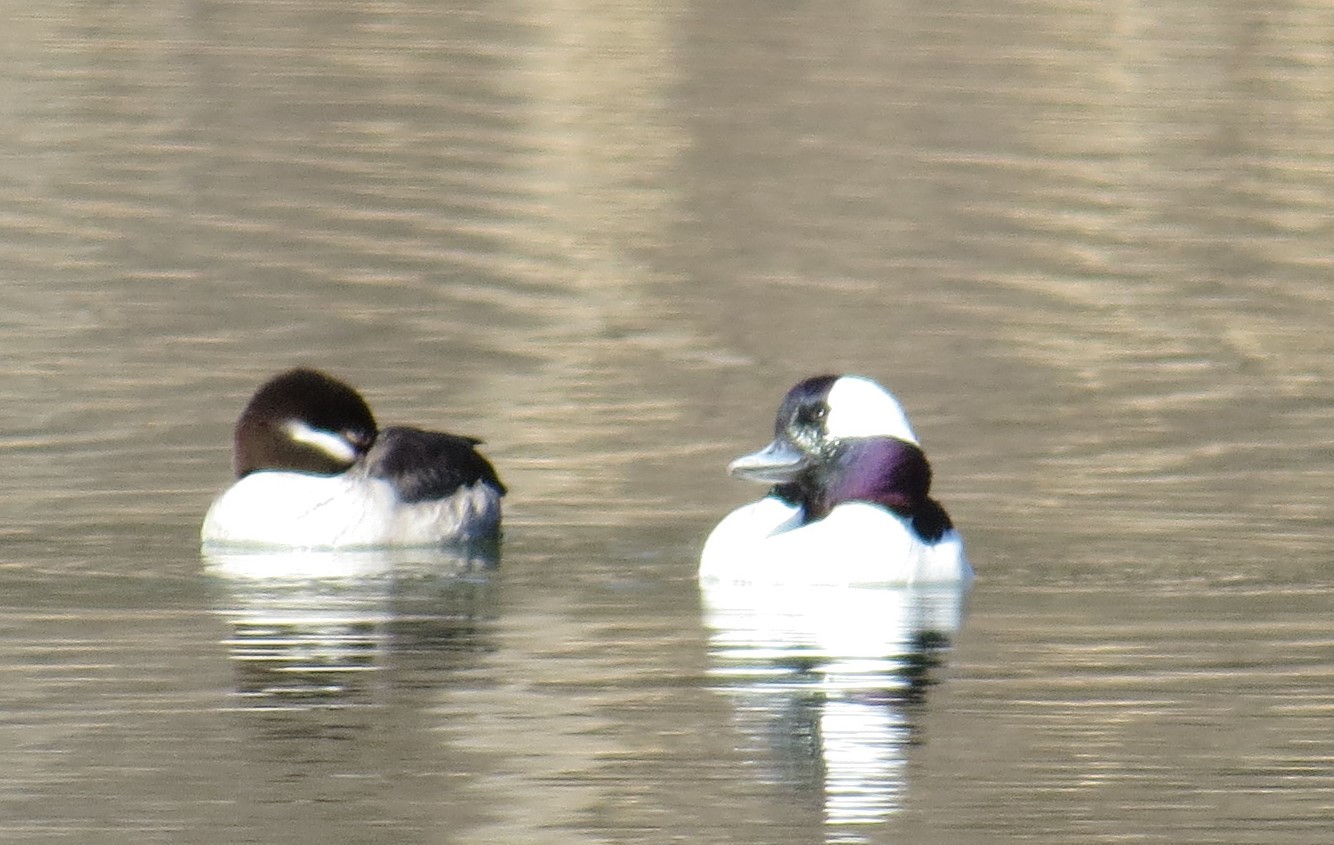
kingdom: Animalia
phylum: Chordata
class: Aves
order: Anseriformes
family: Anatidae
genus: Bucephala
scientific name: Bucephala albeola
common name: Bufflehead
